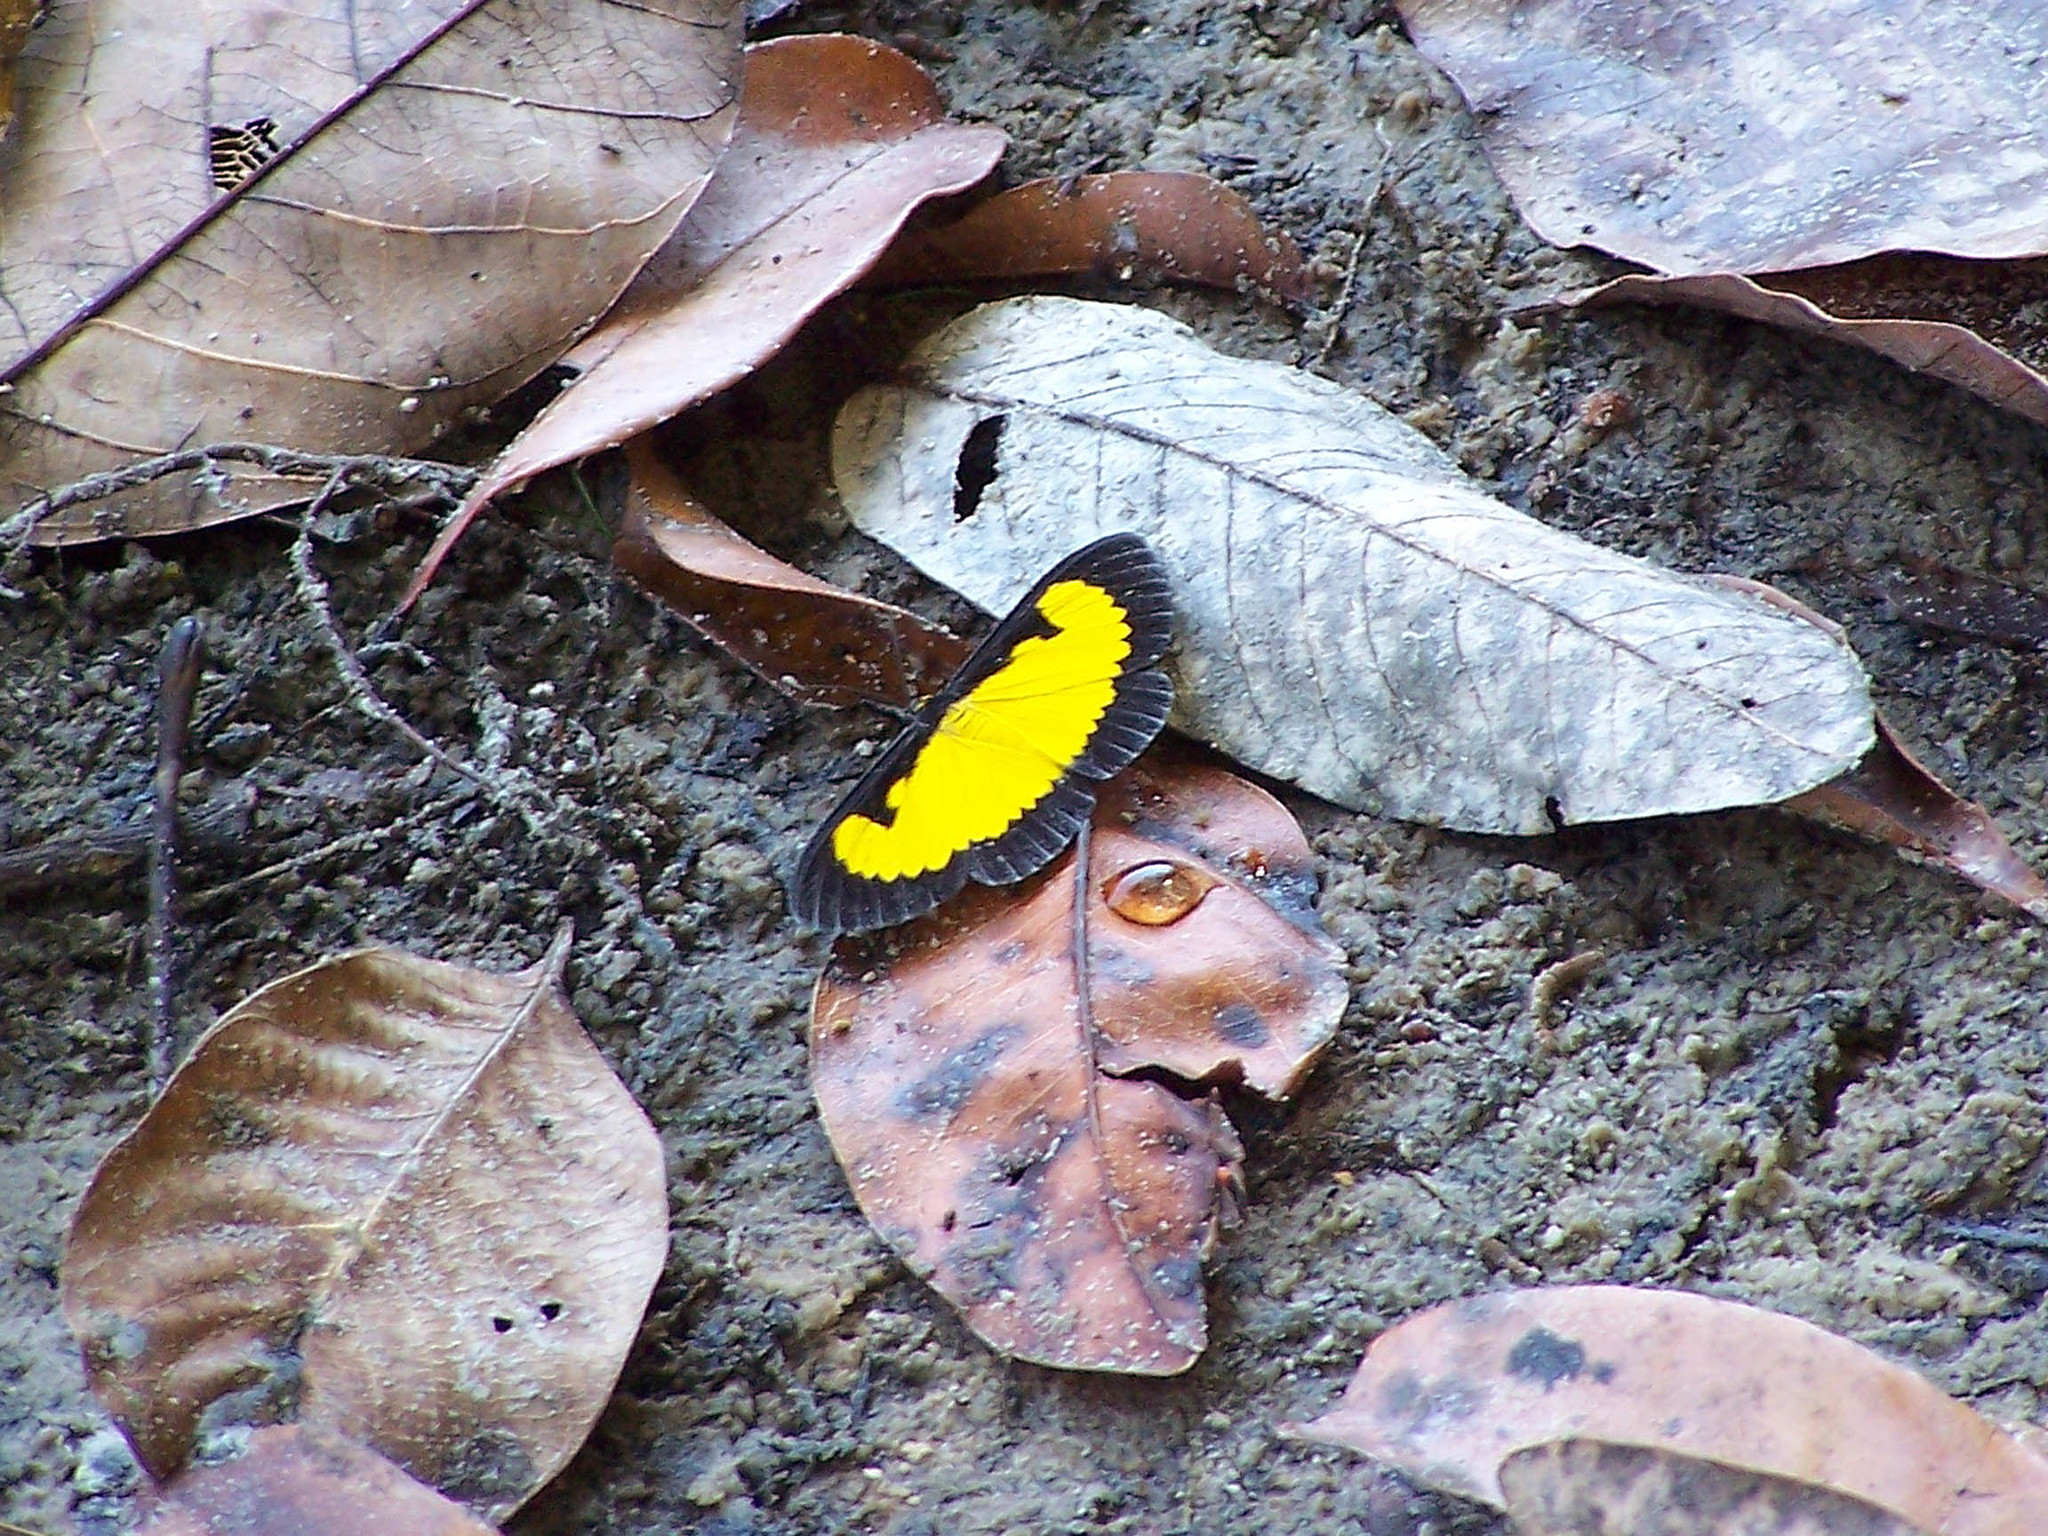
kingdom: Animalia
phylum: Arthropoda
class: Insecta
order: Lepidoptera
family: Geometridae
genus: Xanthyris
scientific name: Xanthyris flaveolata
